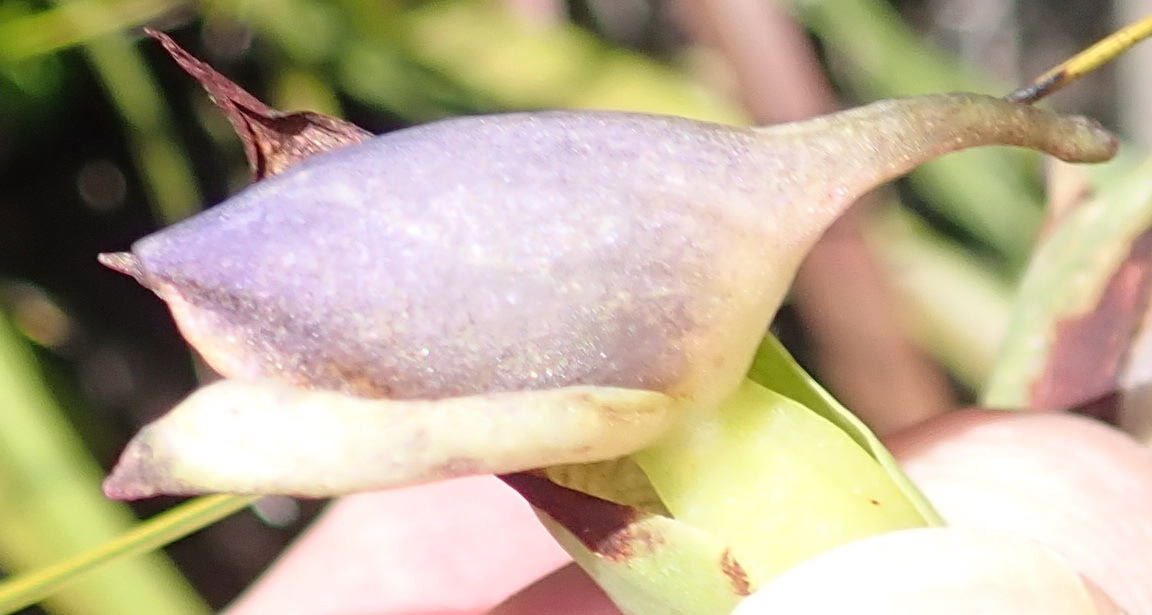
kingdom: Plantae
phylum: Tracheophyta
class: Liliopsida
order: Asparagales
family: Orchidaceae
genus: Disa
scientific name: Disa cornuta
